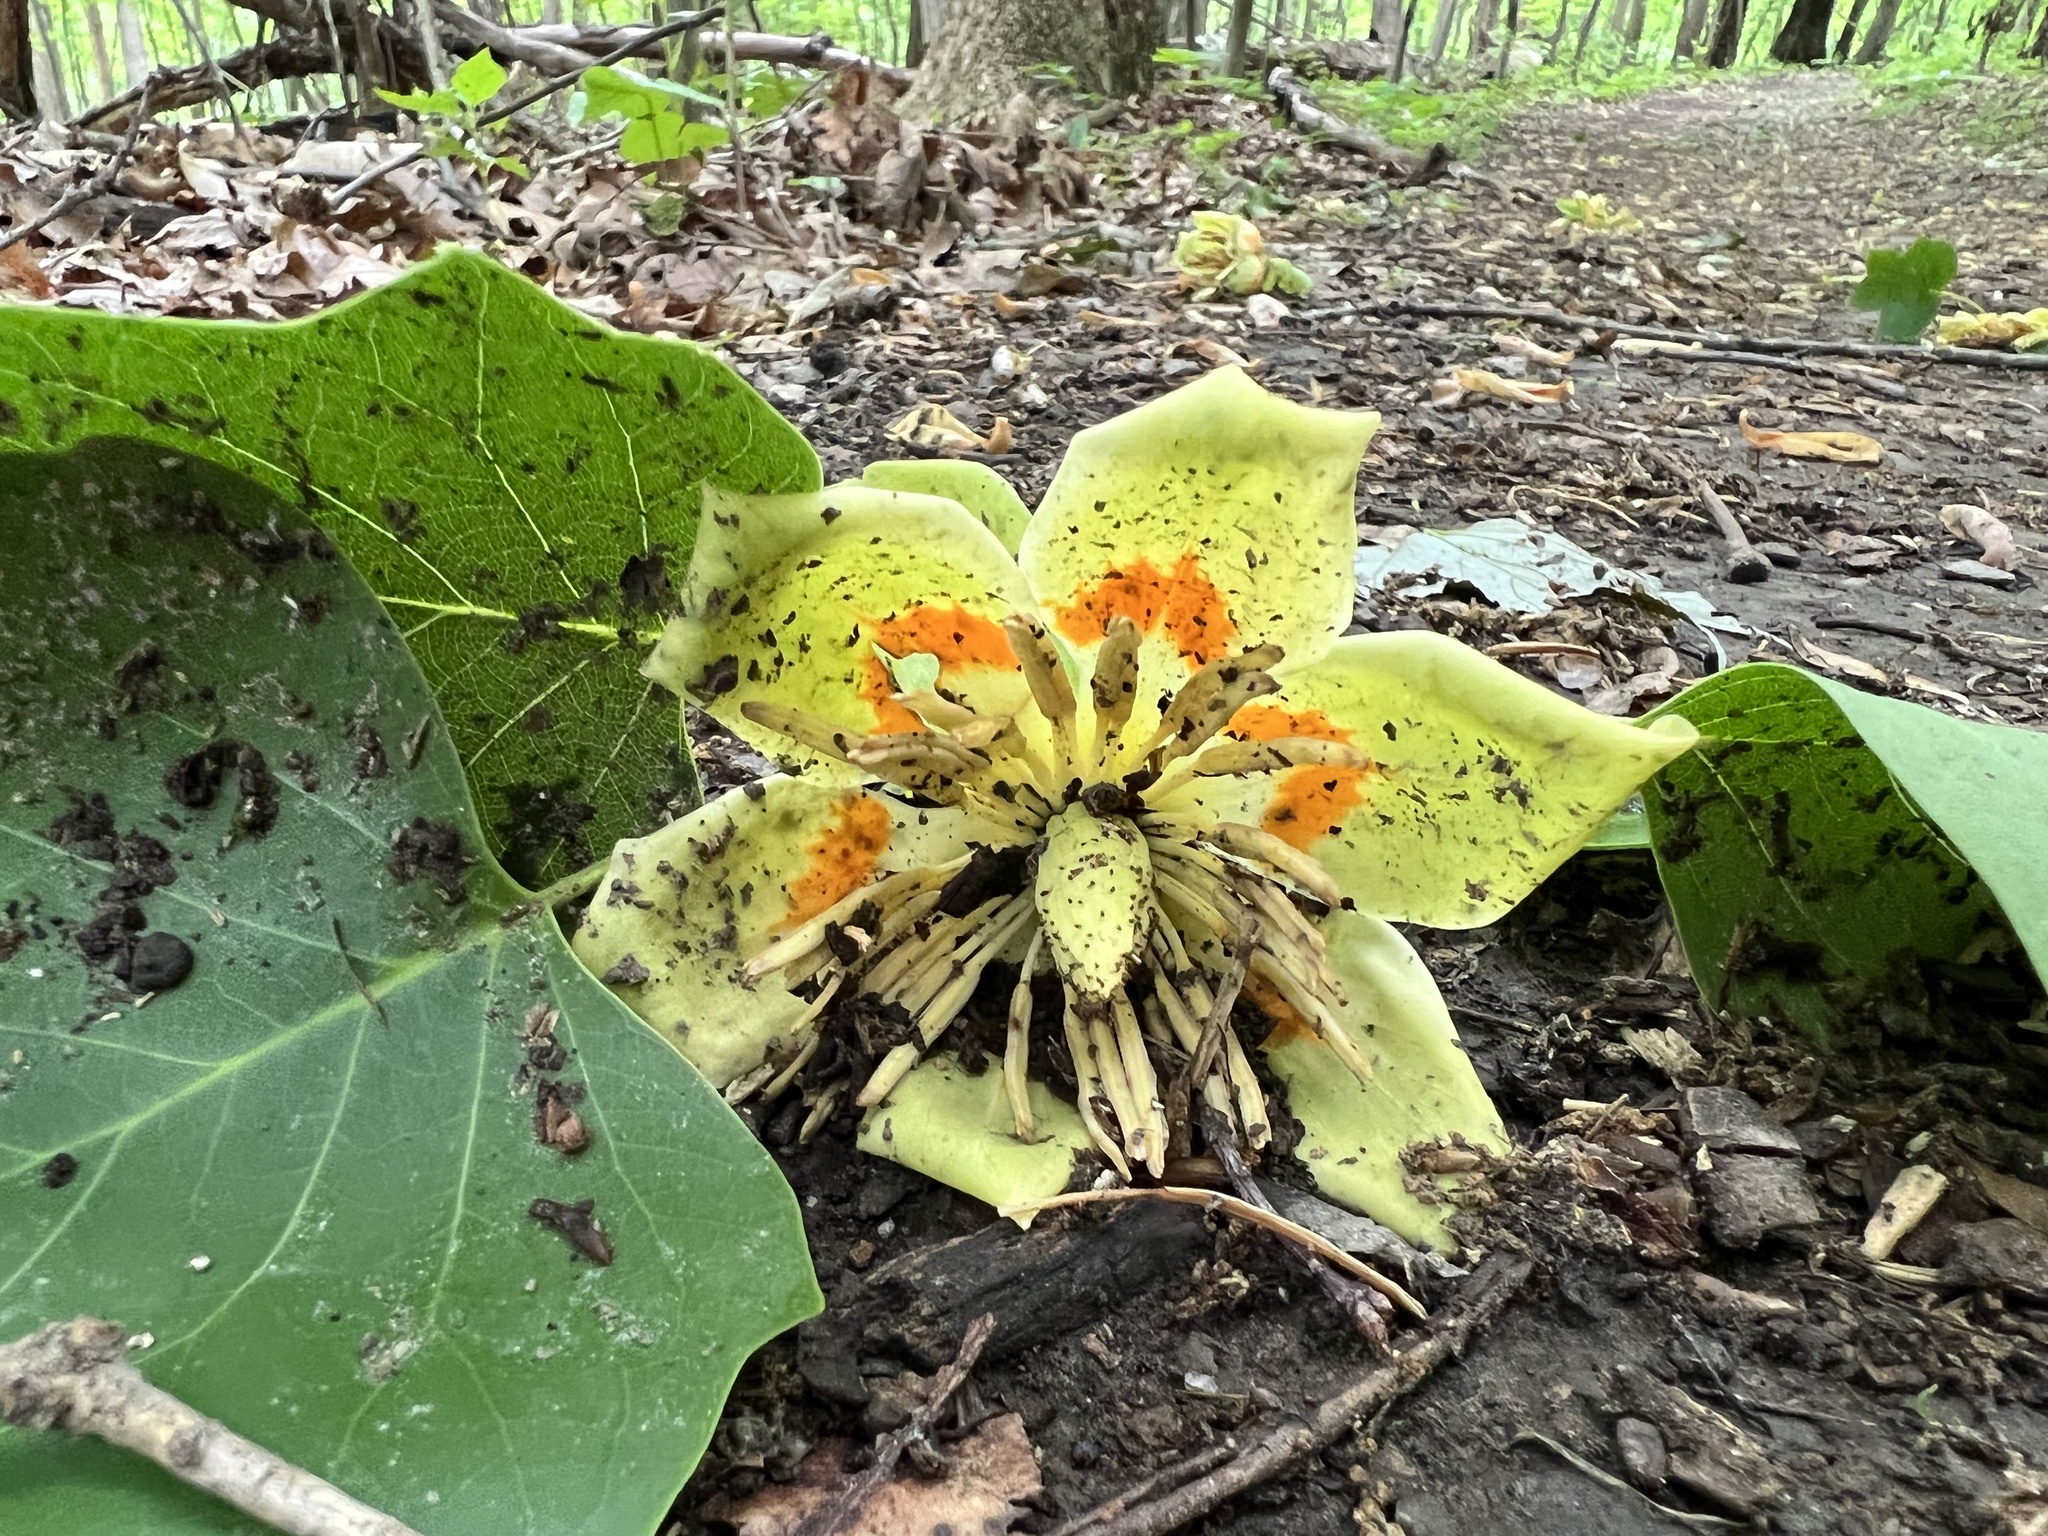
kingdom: Plantae
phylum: Tracheophyta
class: Magnoliopsida
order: Magnoliales
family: Magnoliaceae
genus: Liriodendron
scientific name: Liriodendron tulipifera
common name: Tulip tree
